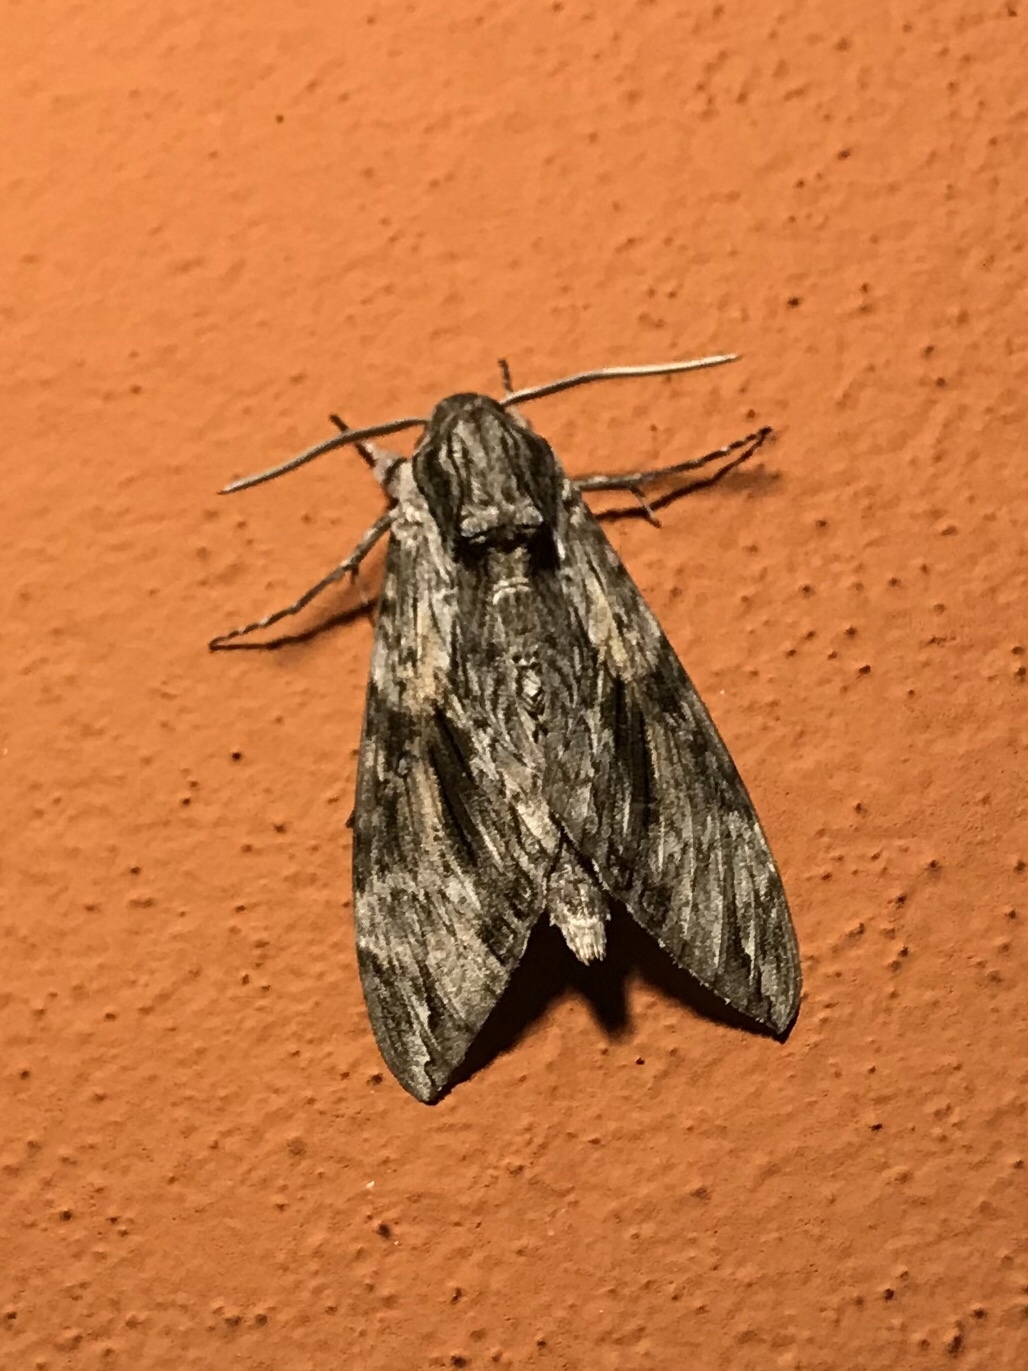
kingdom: Animalia
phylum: Arthropoda
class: Insecta
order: Lepidoptera
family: Sphingidae
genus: Agrius
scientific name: Agrius convolvuli
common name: Convolvulus hawkmoth
